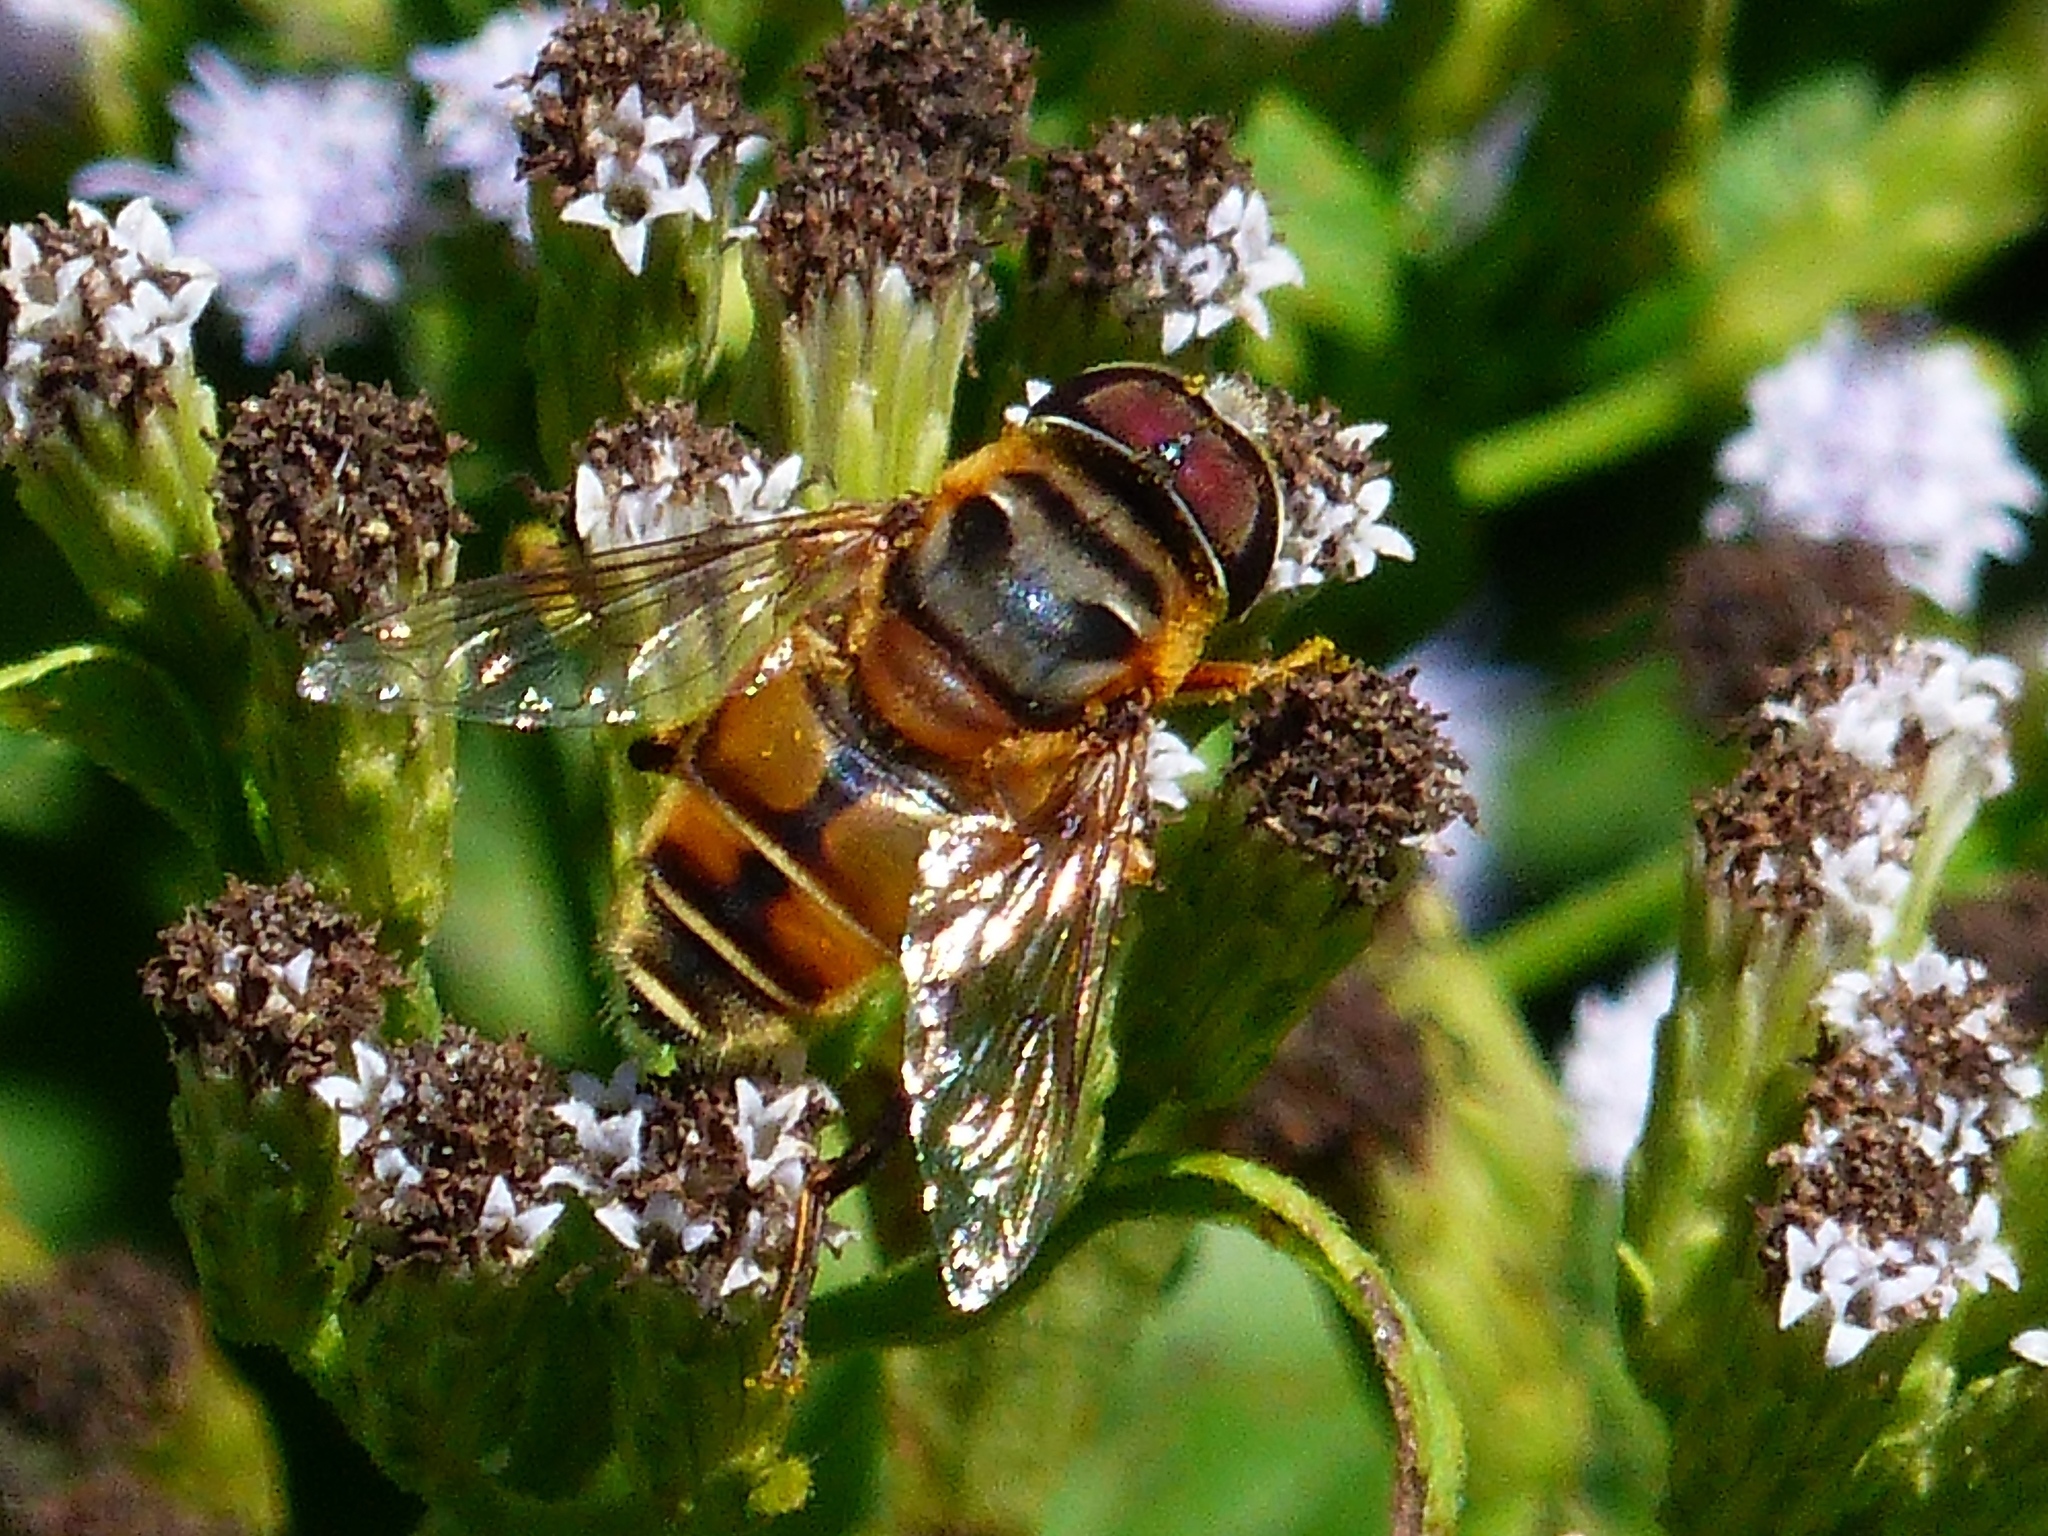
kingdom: Animalia
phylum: Arthropoda
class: Insecta
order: Diptera
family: Syrphidae
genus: Palpada
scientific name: Palpada vinetorum
